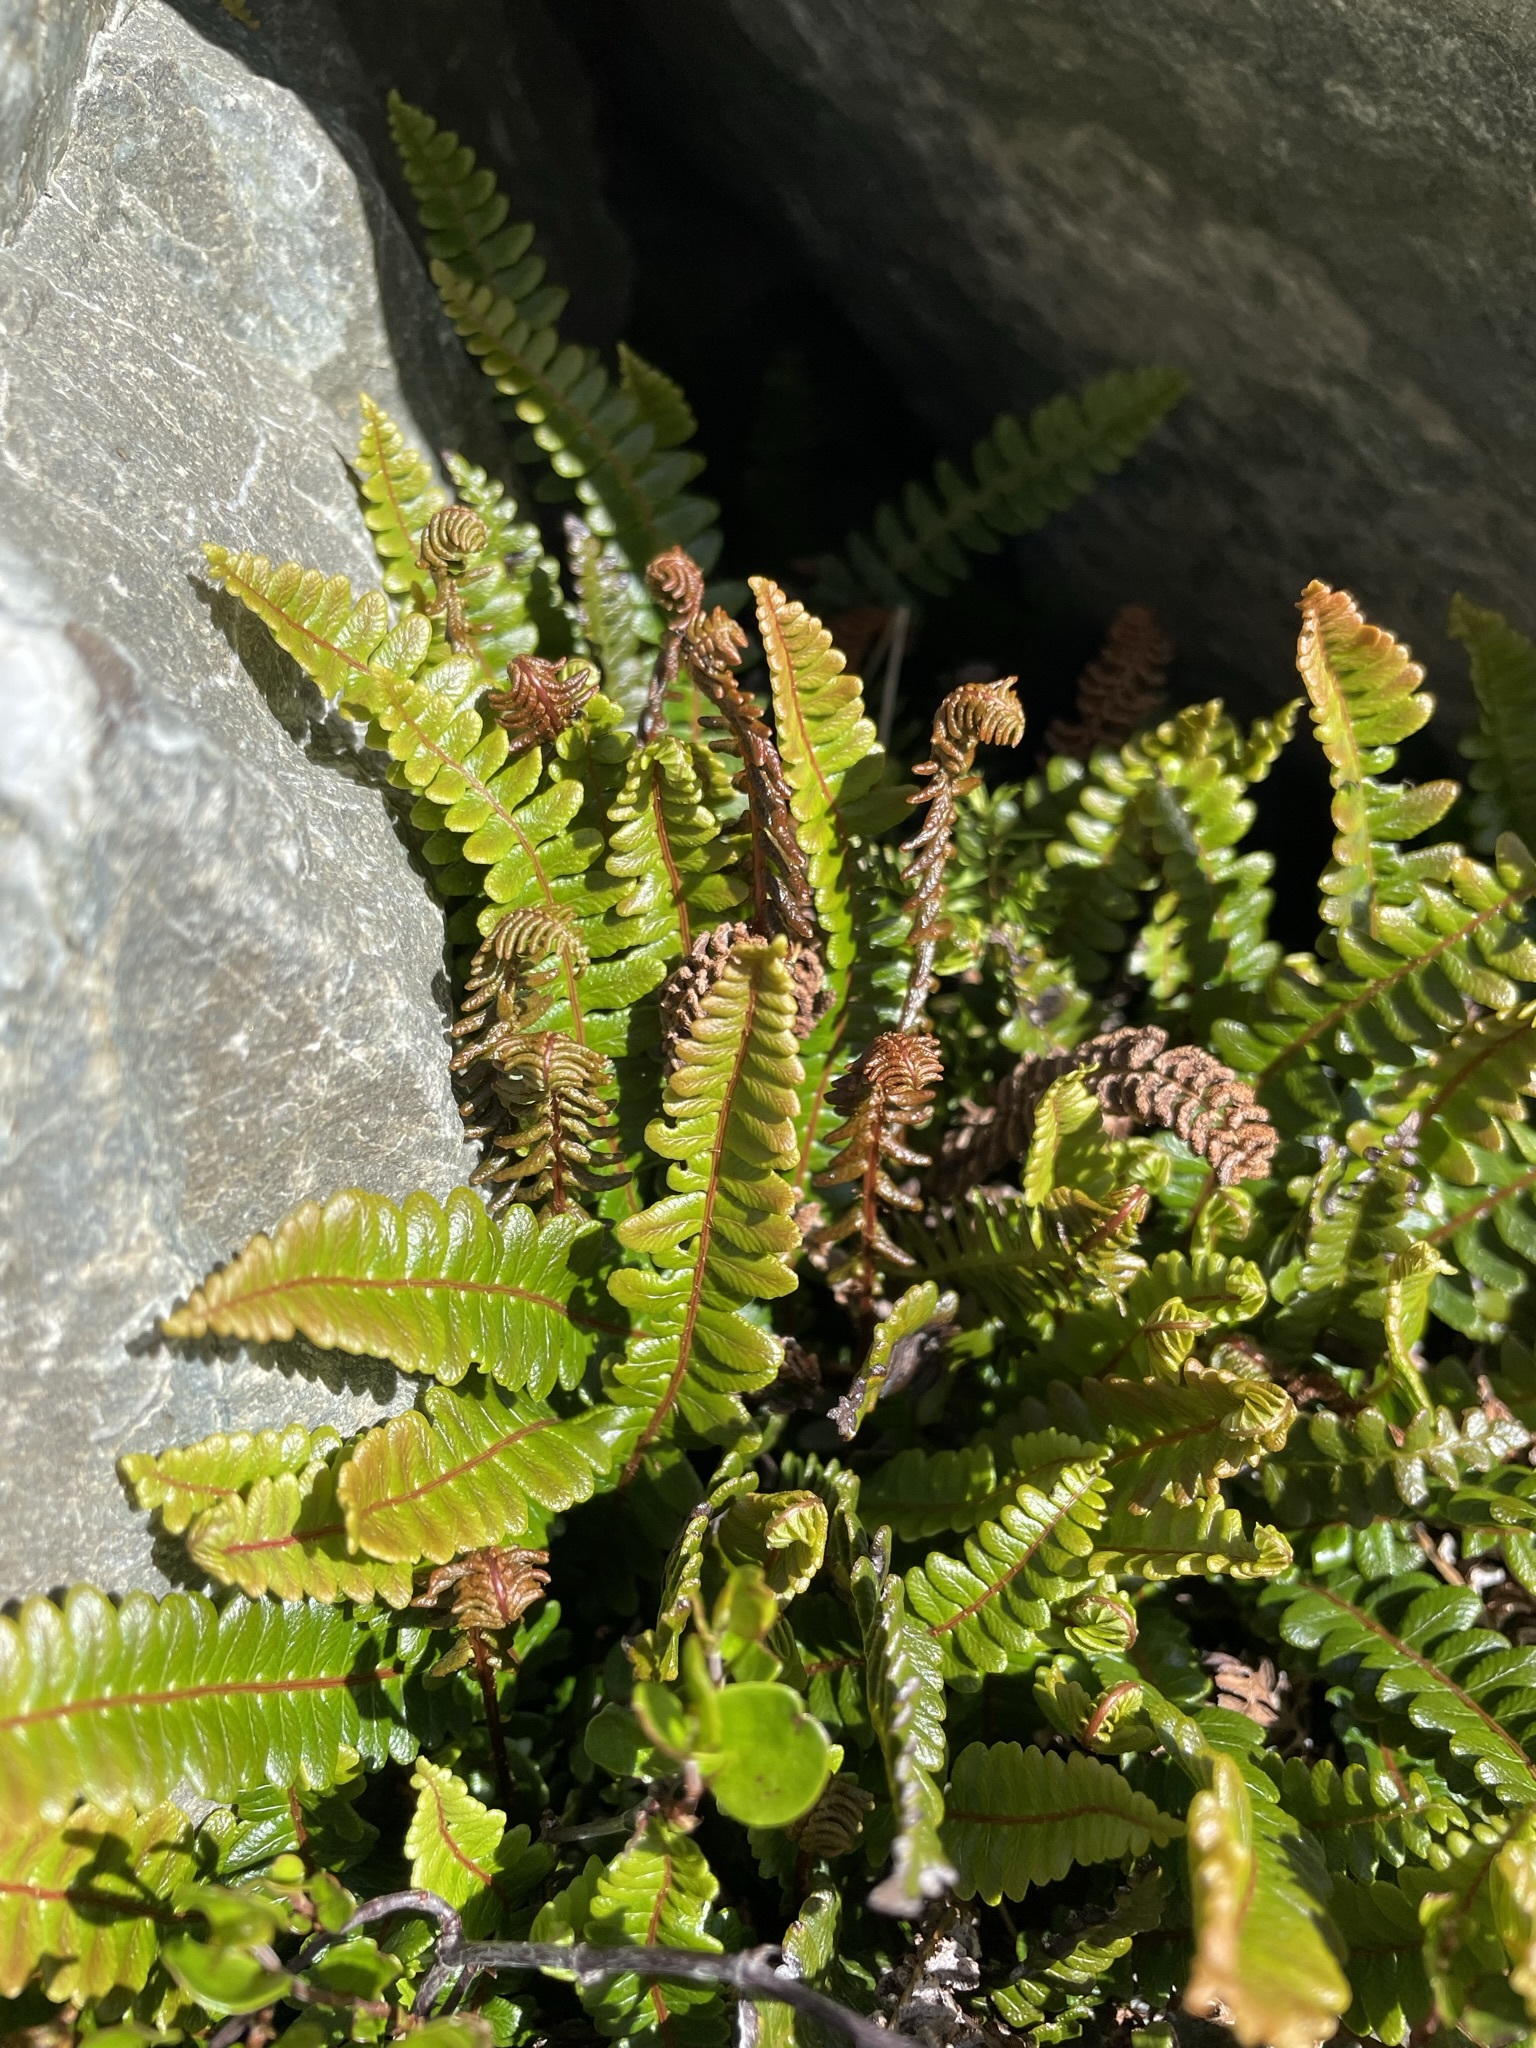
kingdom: Plantae
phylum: Tracheophyta
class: Polypodiopsida
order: Polypodiales
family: Blechnaceae
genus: Austroblechnum
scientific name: Austroblechnum penna-marina
